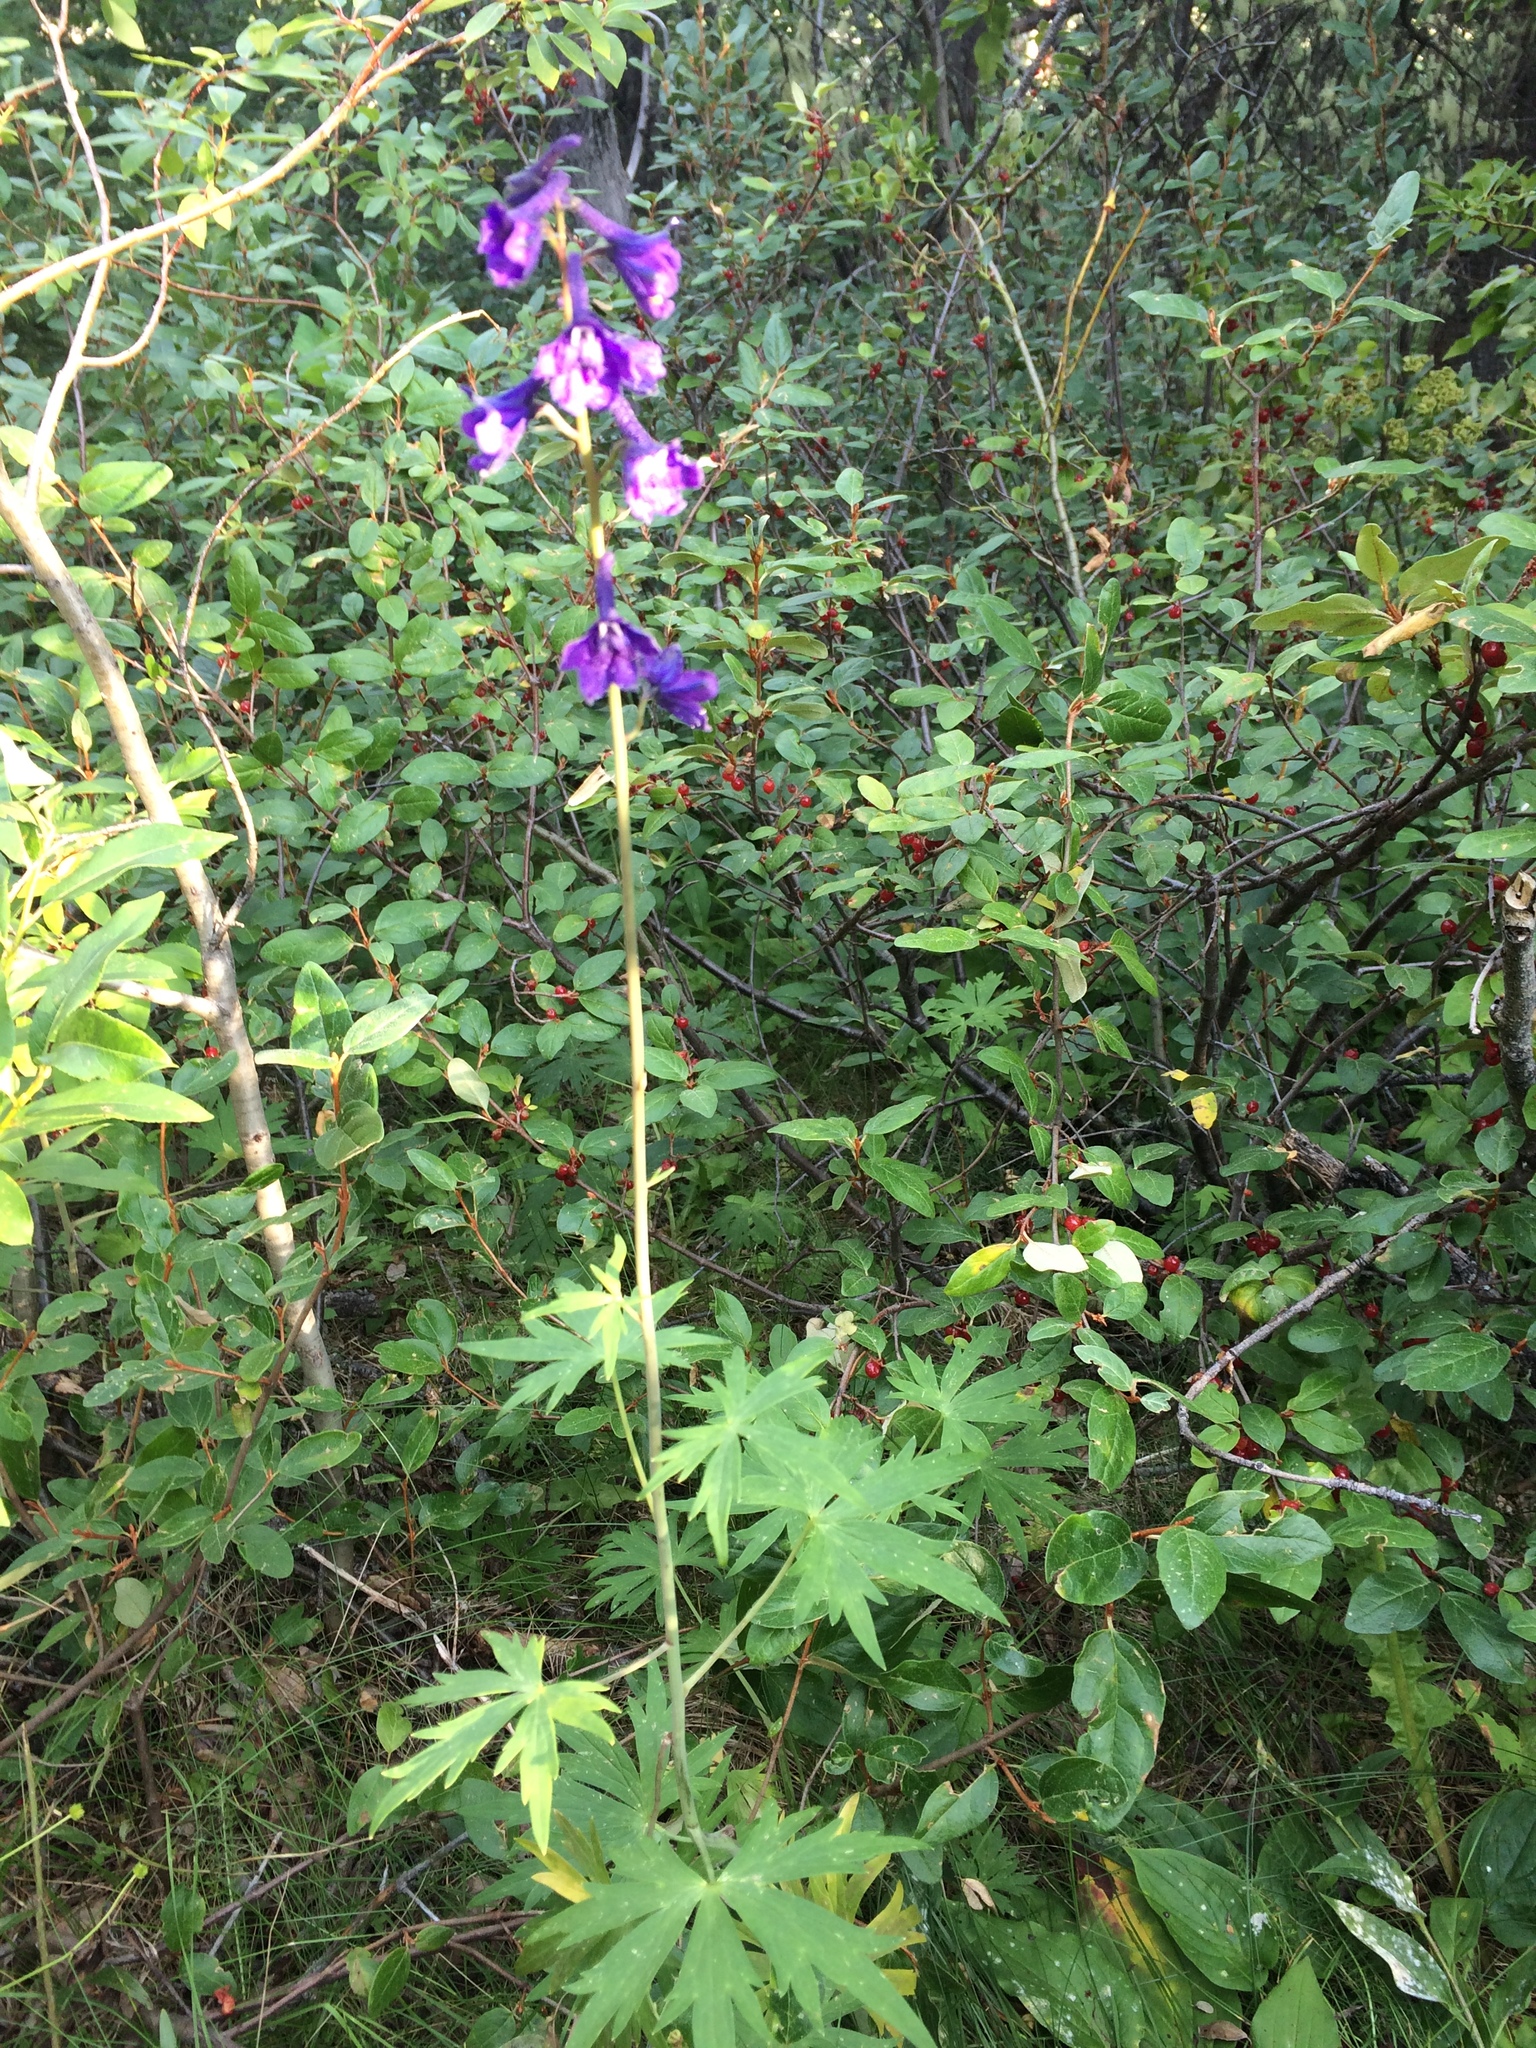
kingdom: Plantae
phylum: Tracheophyta
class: Magnoliopsida
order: Ranunculales
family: Ranunculaceae
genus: Delphinium
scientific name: Delphinium glaucum
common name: Brown's larkspur
